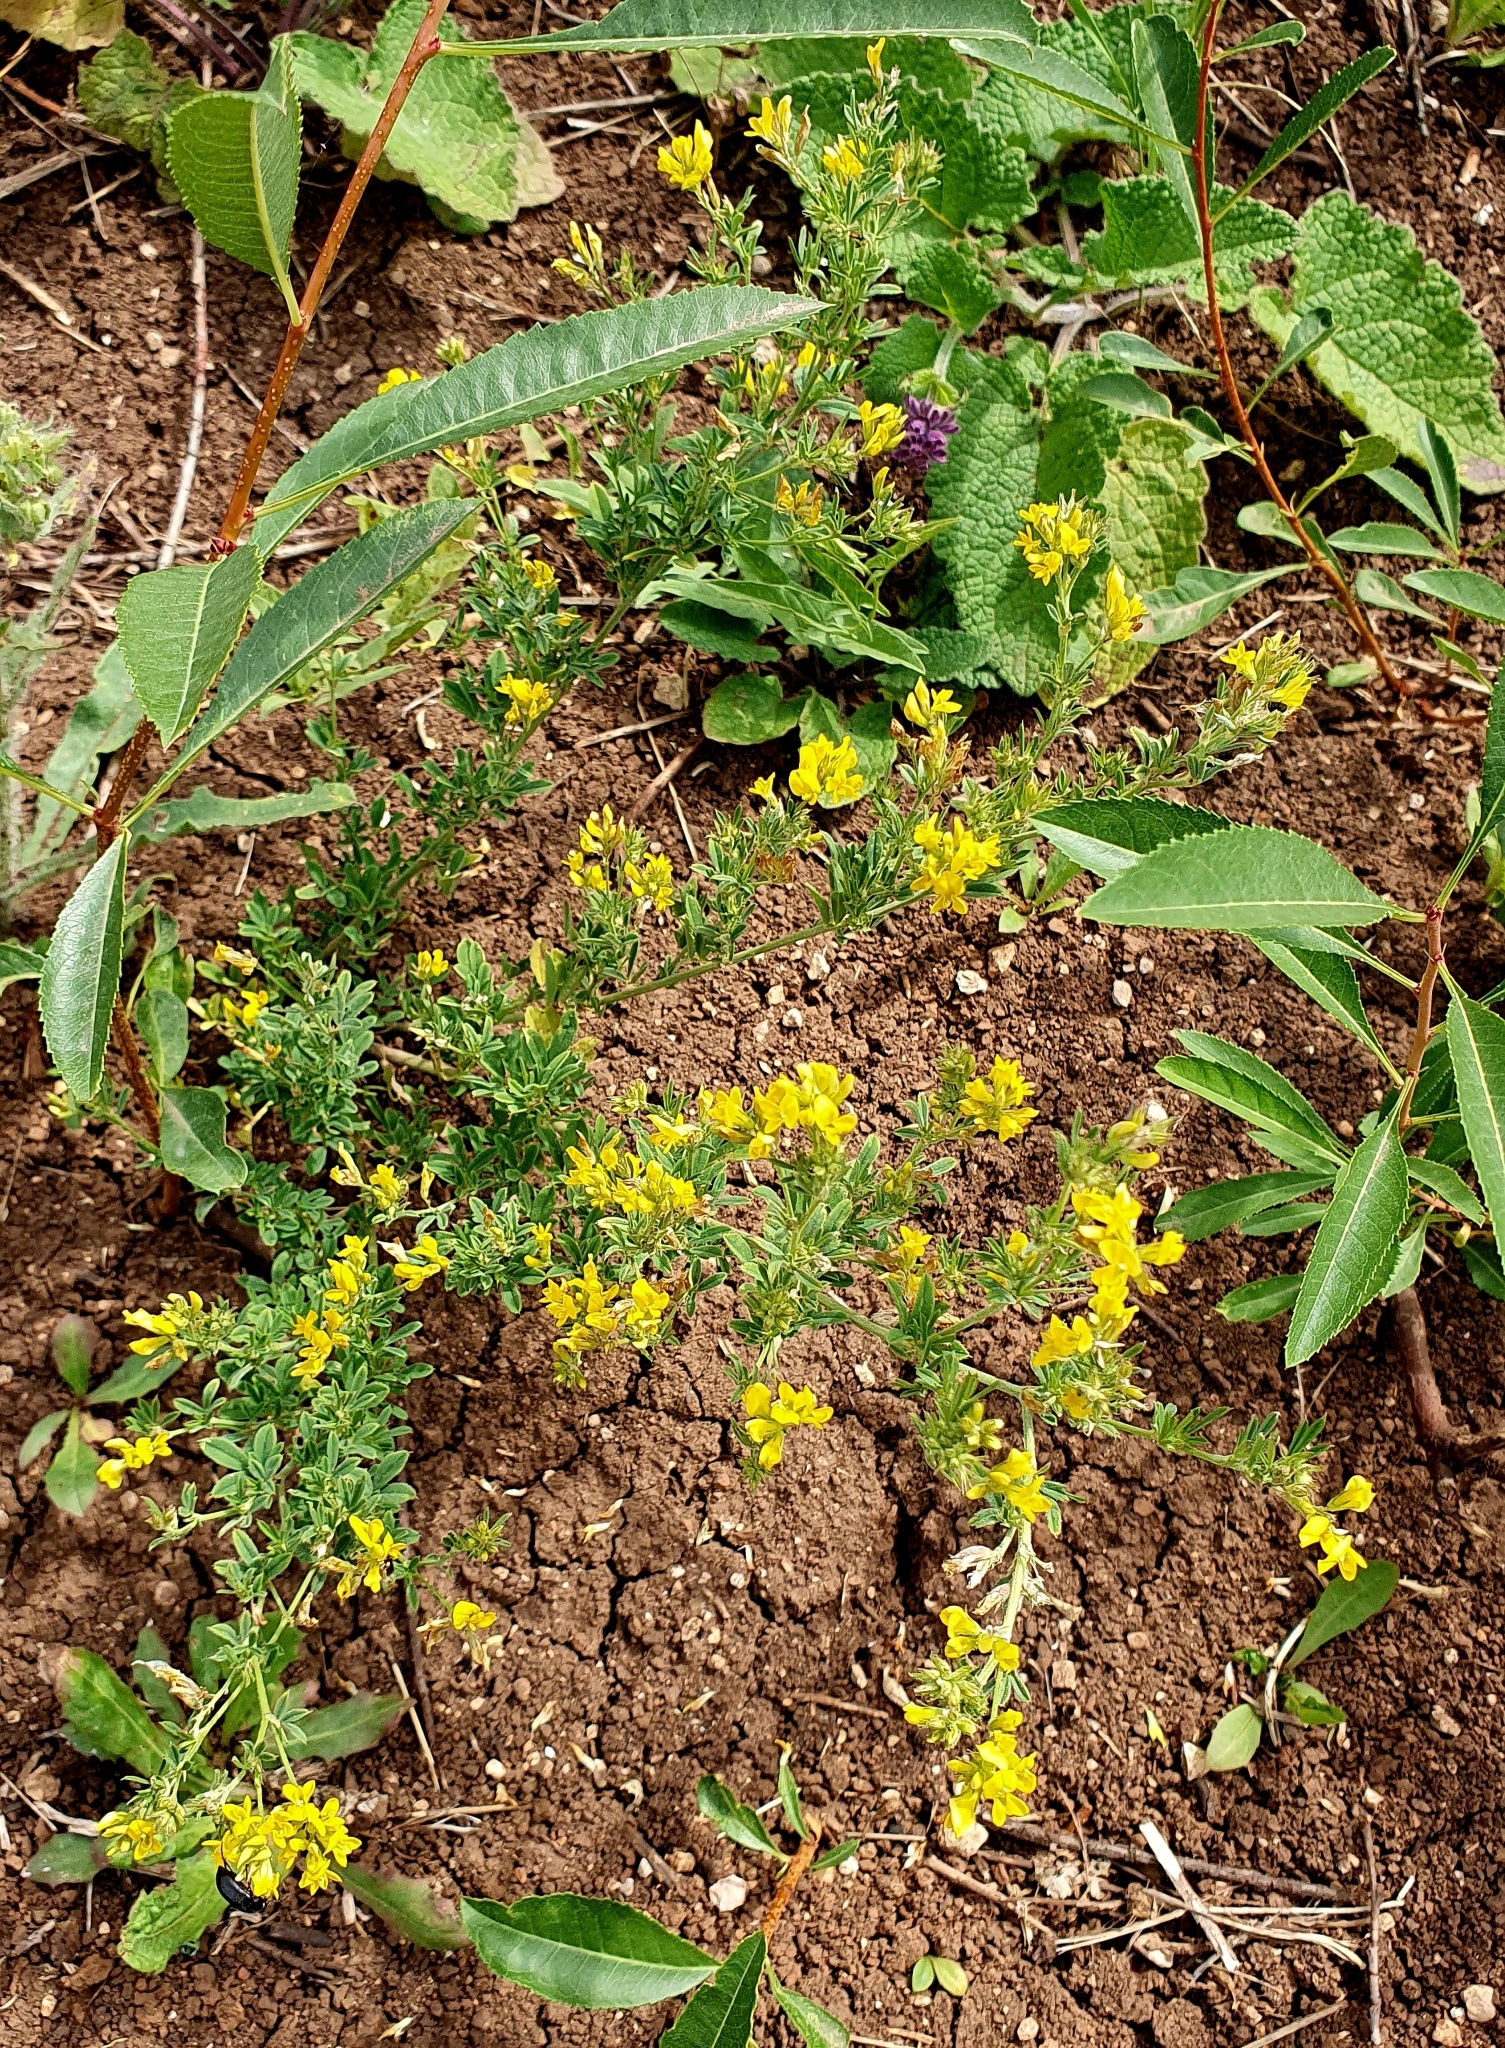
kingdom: Plantae
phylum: Tracheophyta
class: Magnoliopsida
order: Fabales
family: Fabaceae
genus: Medicago
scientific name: Medicago falcata
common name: Sickle medick
